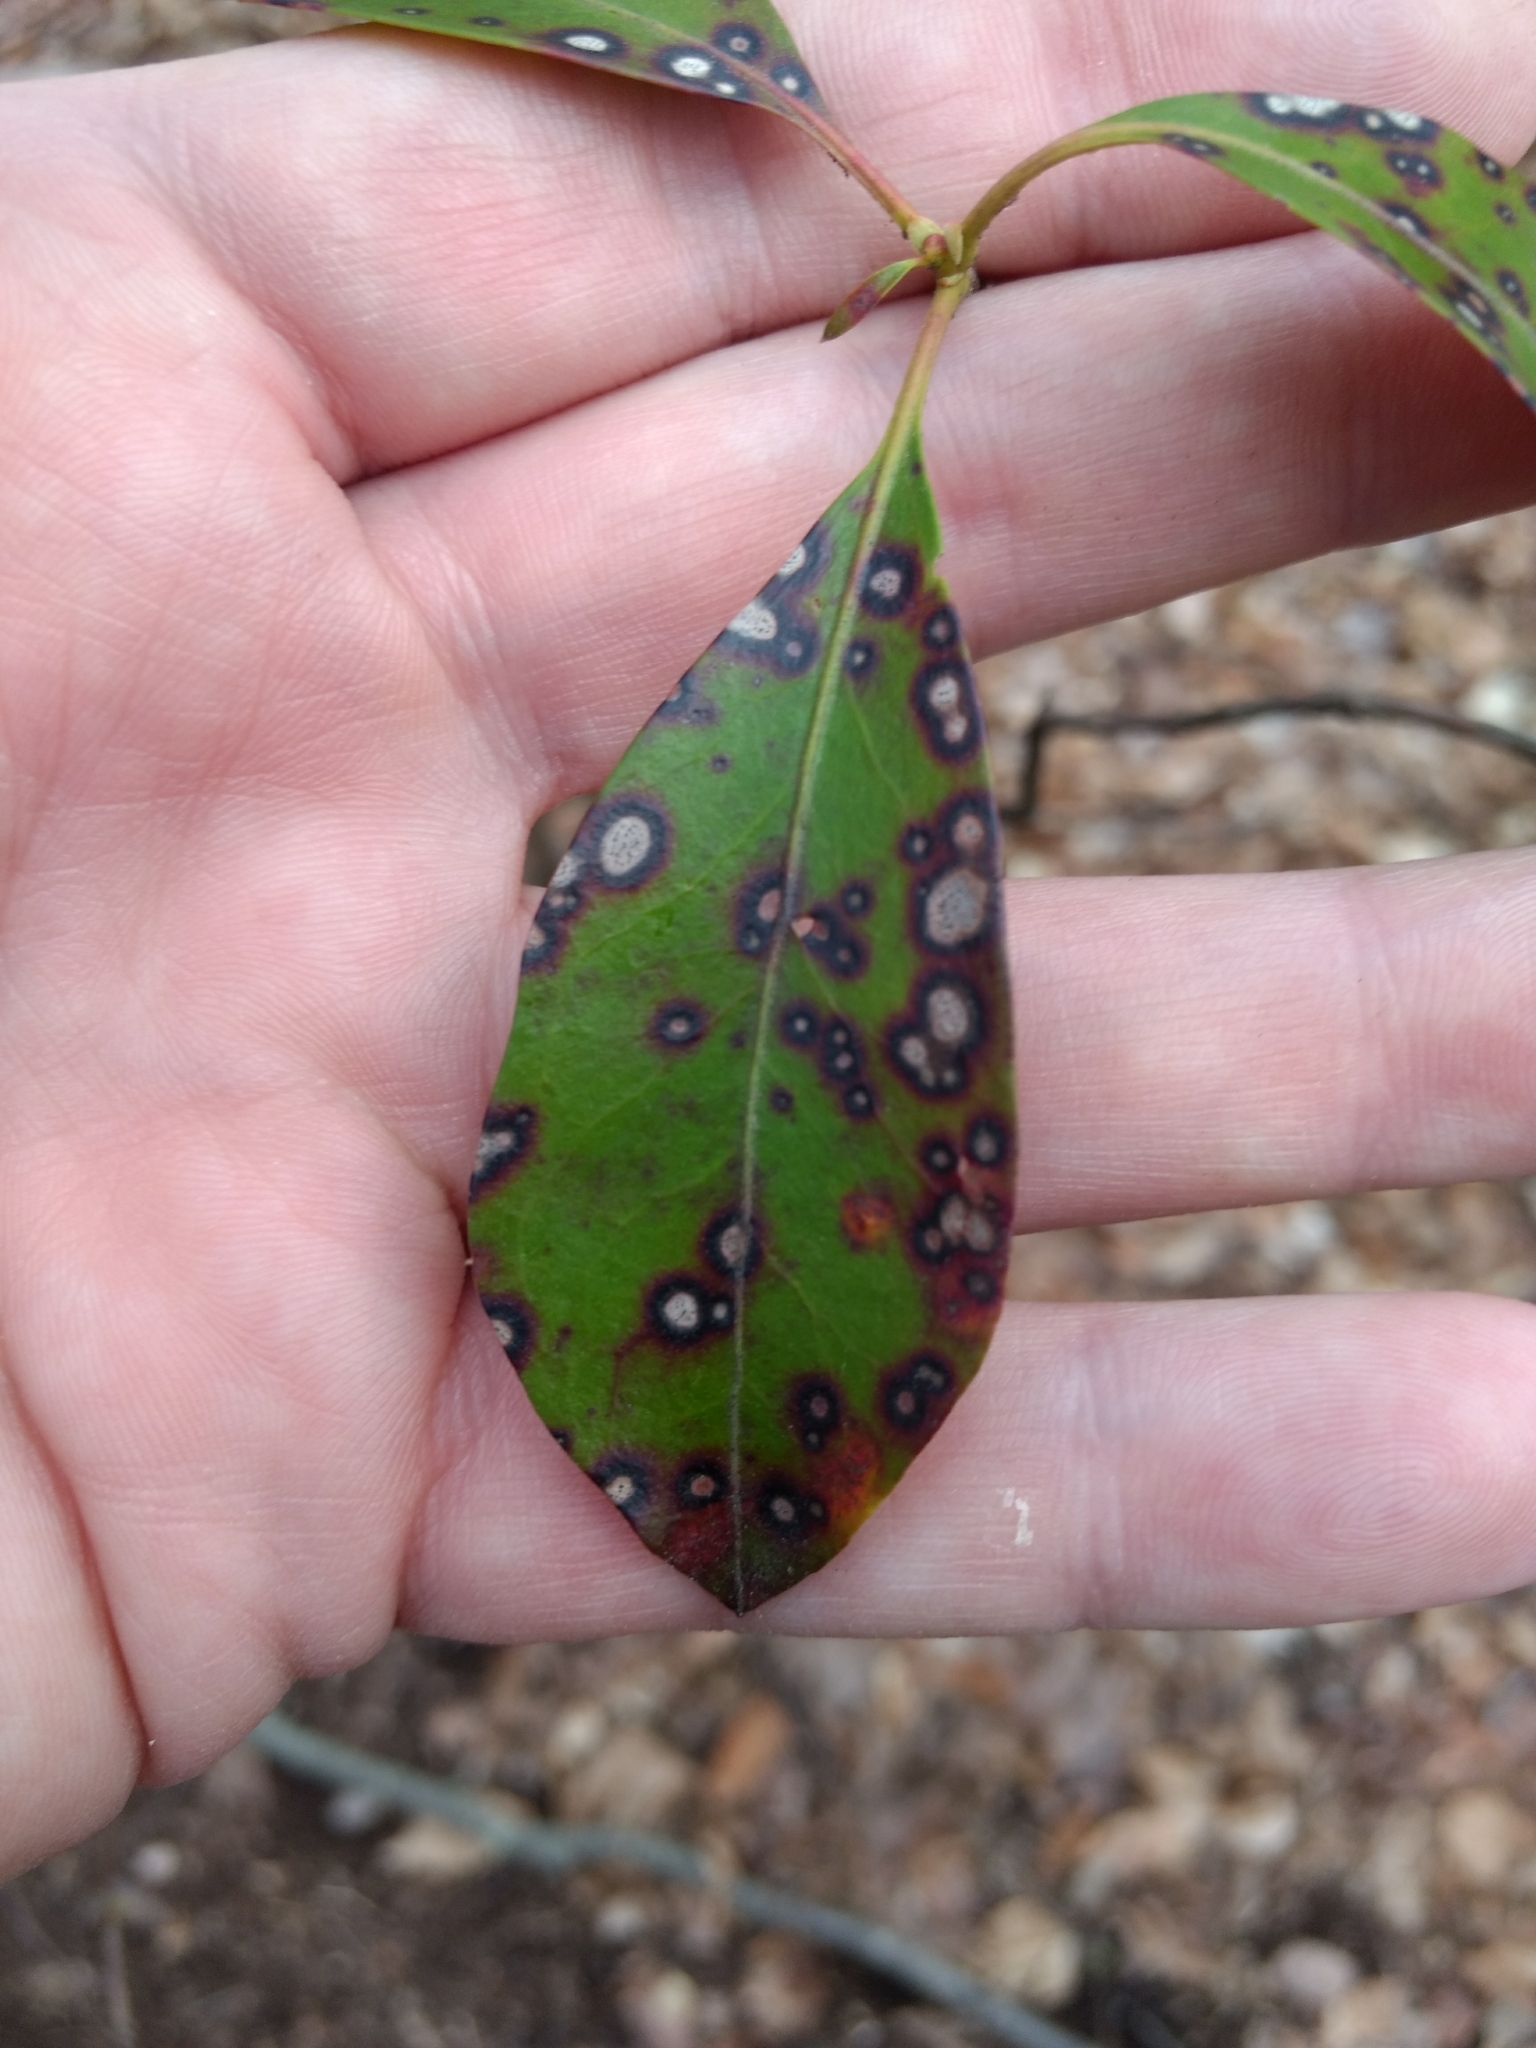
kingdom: Fungi
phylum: Ascomycota
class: Dothideomycetes
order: Mycosphaerellales
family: Mycosphaerellaceae
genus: Mycosphaerella
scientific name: Mycosphaerella colorata
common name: Mountain laurel leaf spot
